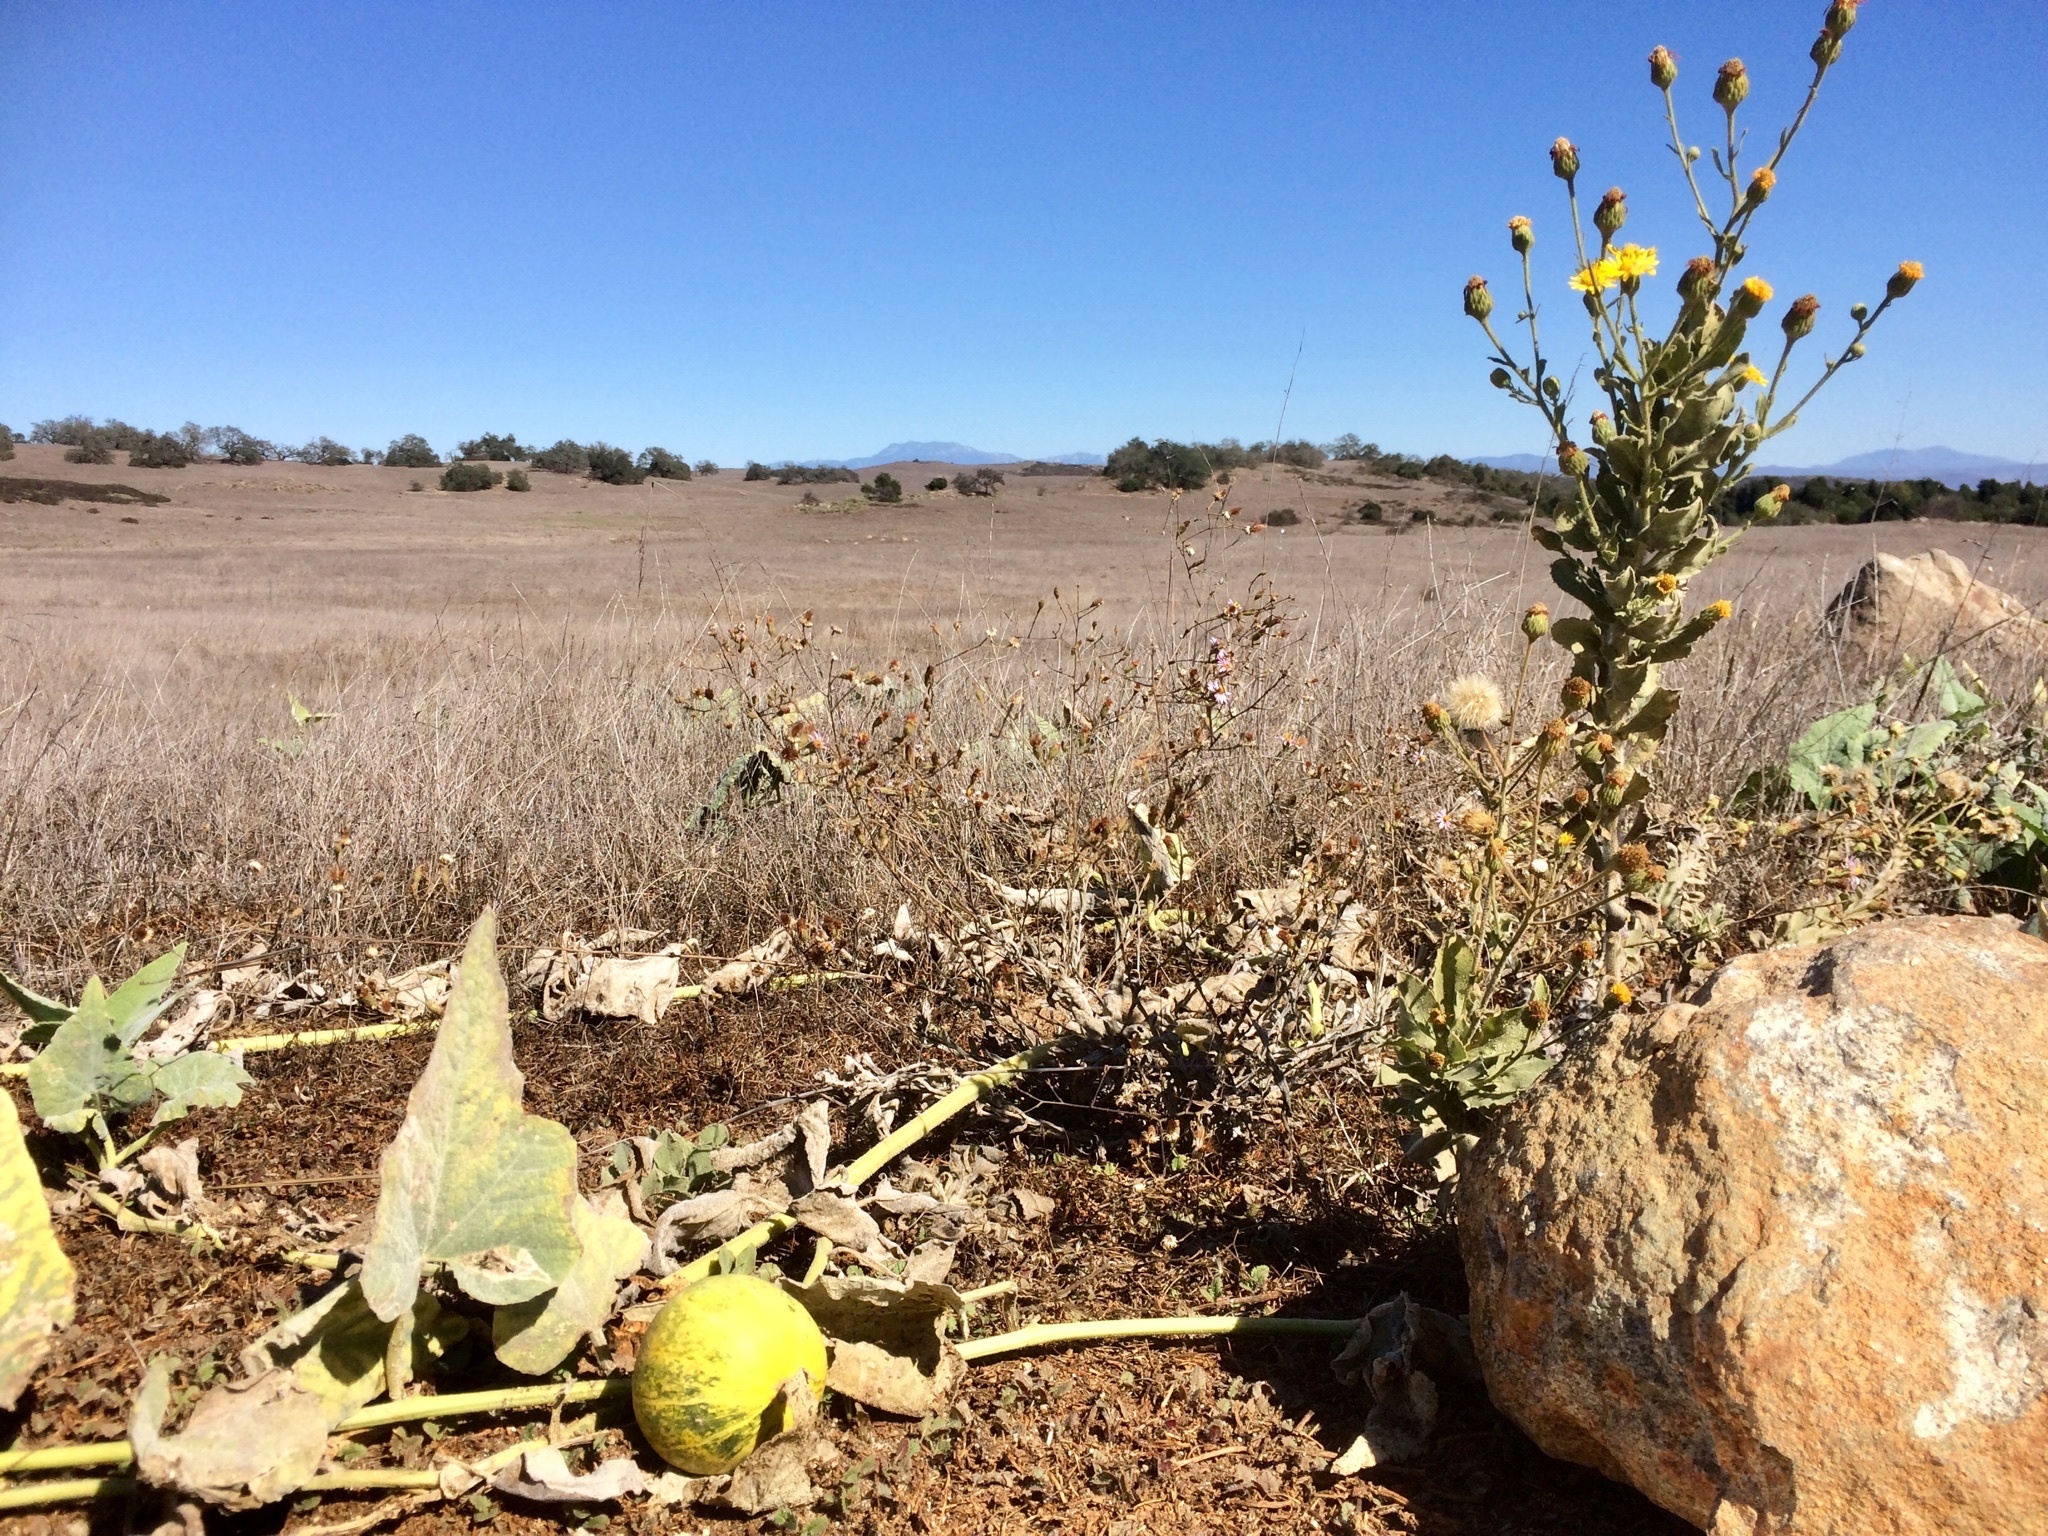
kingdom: Plantae
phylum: Tracheophyta
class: Magnoliopsida
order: Cucurbitales
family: Cucurbitaceae
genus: Cucurbita
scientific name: Cucurbita foetidissima
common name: Buffalo gourd
